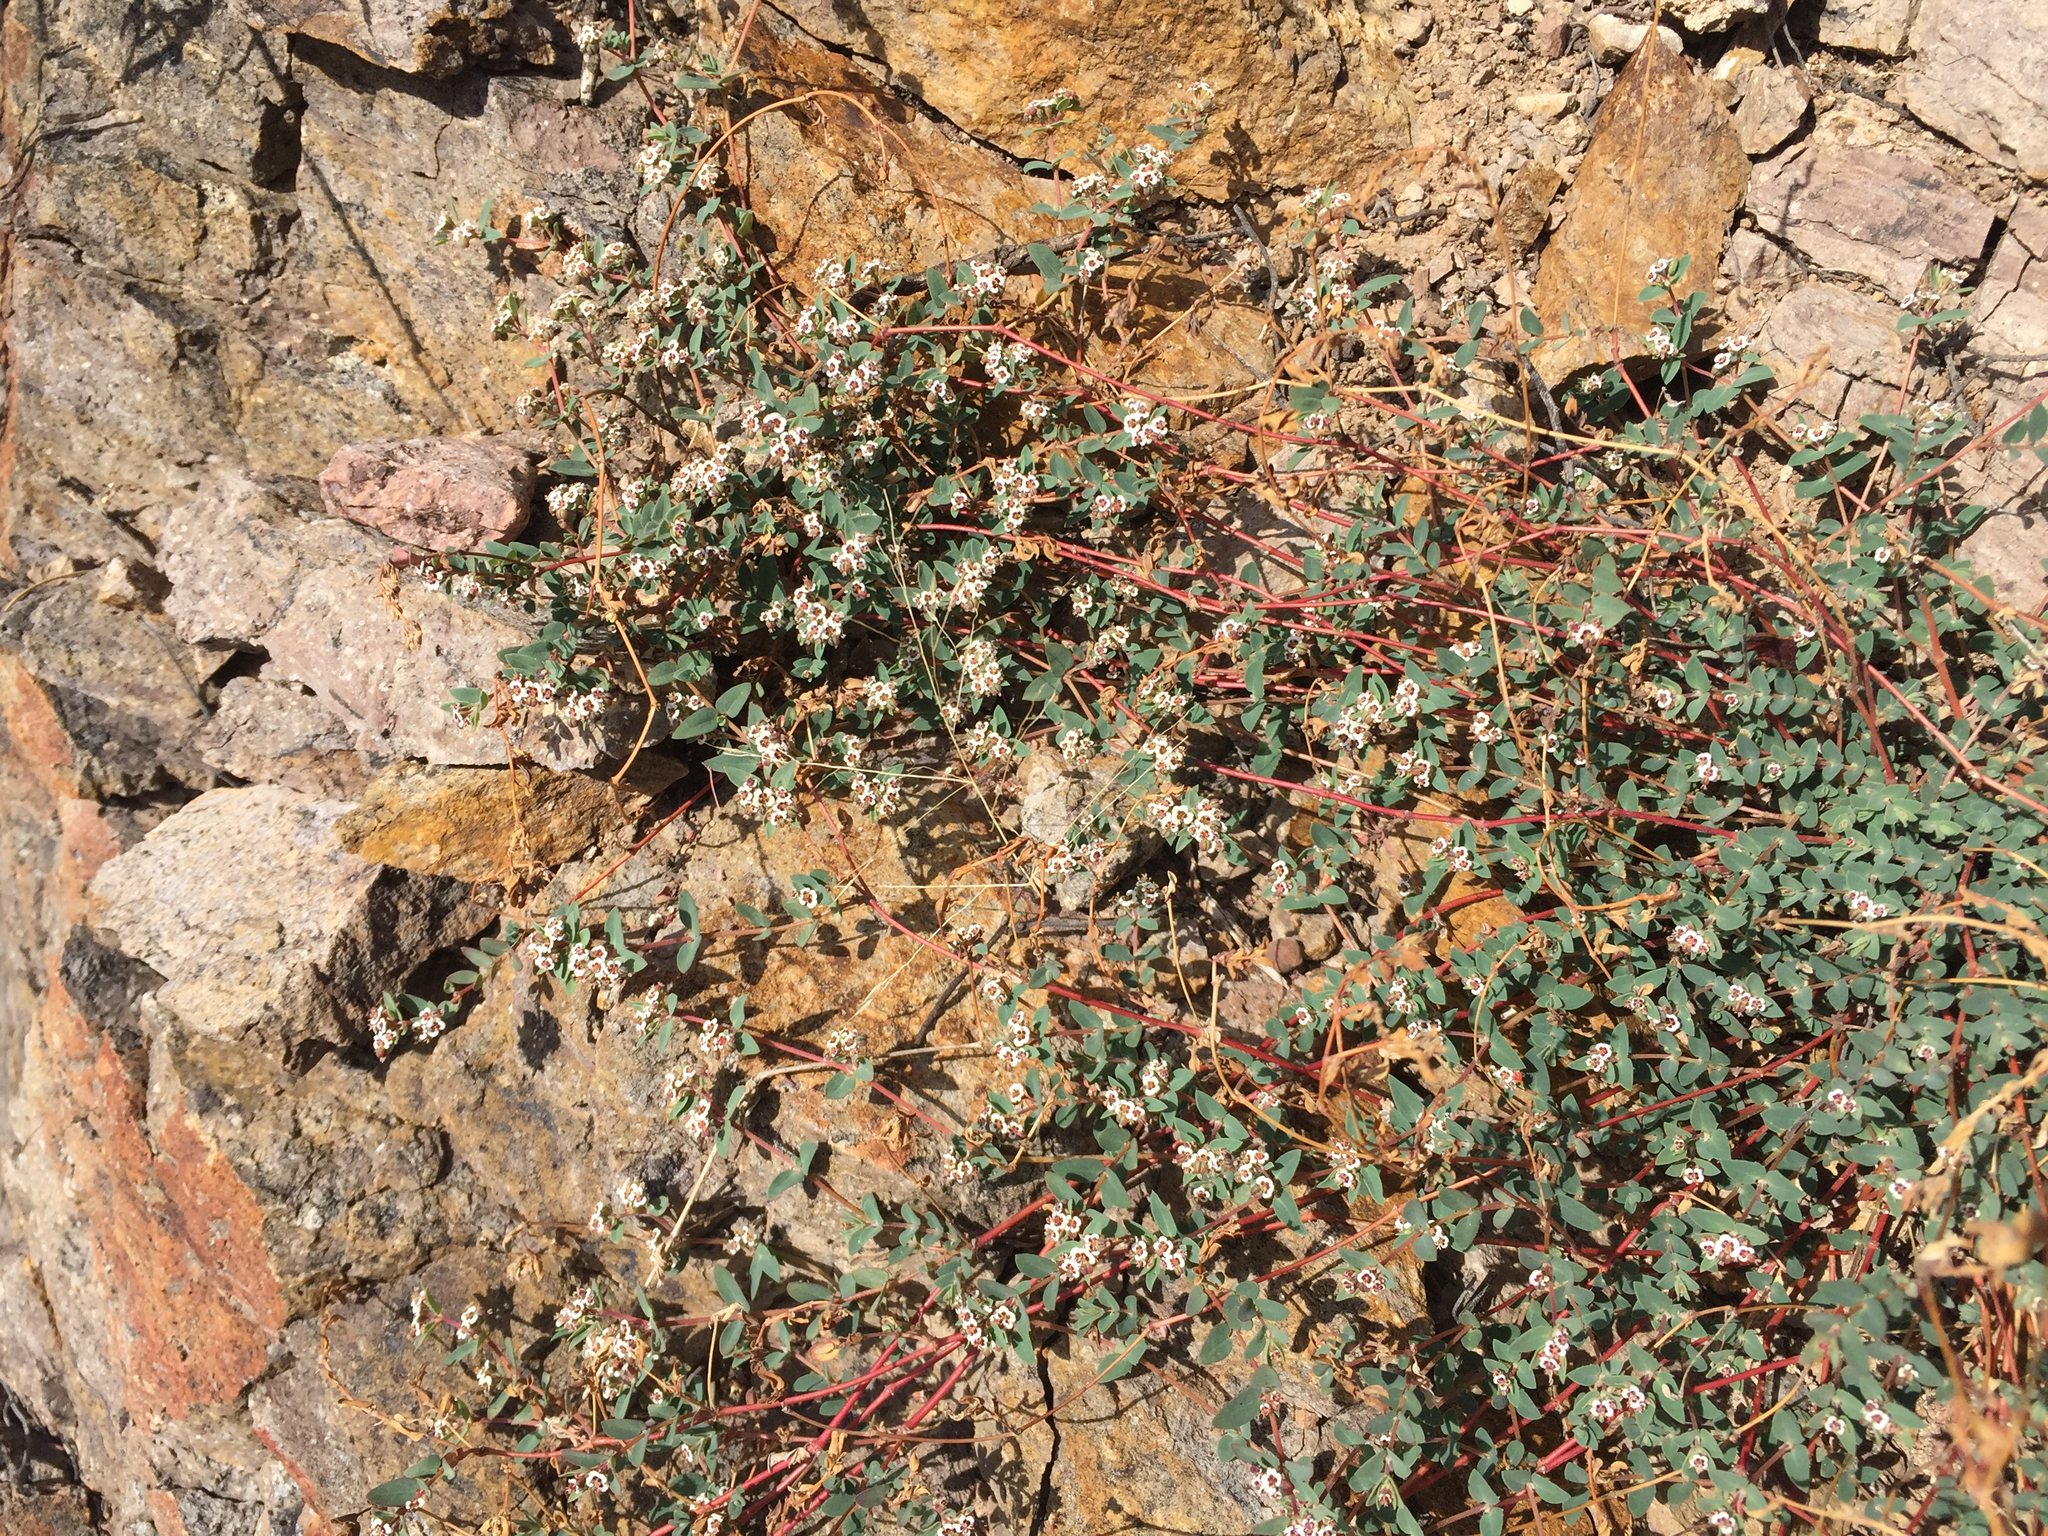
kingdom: Plantae
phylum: Tracheophyta
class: Magnoliopsida
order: Malpighiales
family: Euphorbiaceae
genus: Euphorbia
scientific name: Euphorbia capitellata
